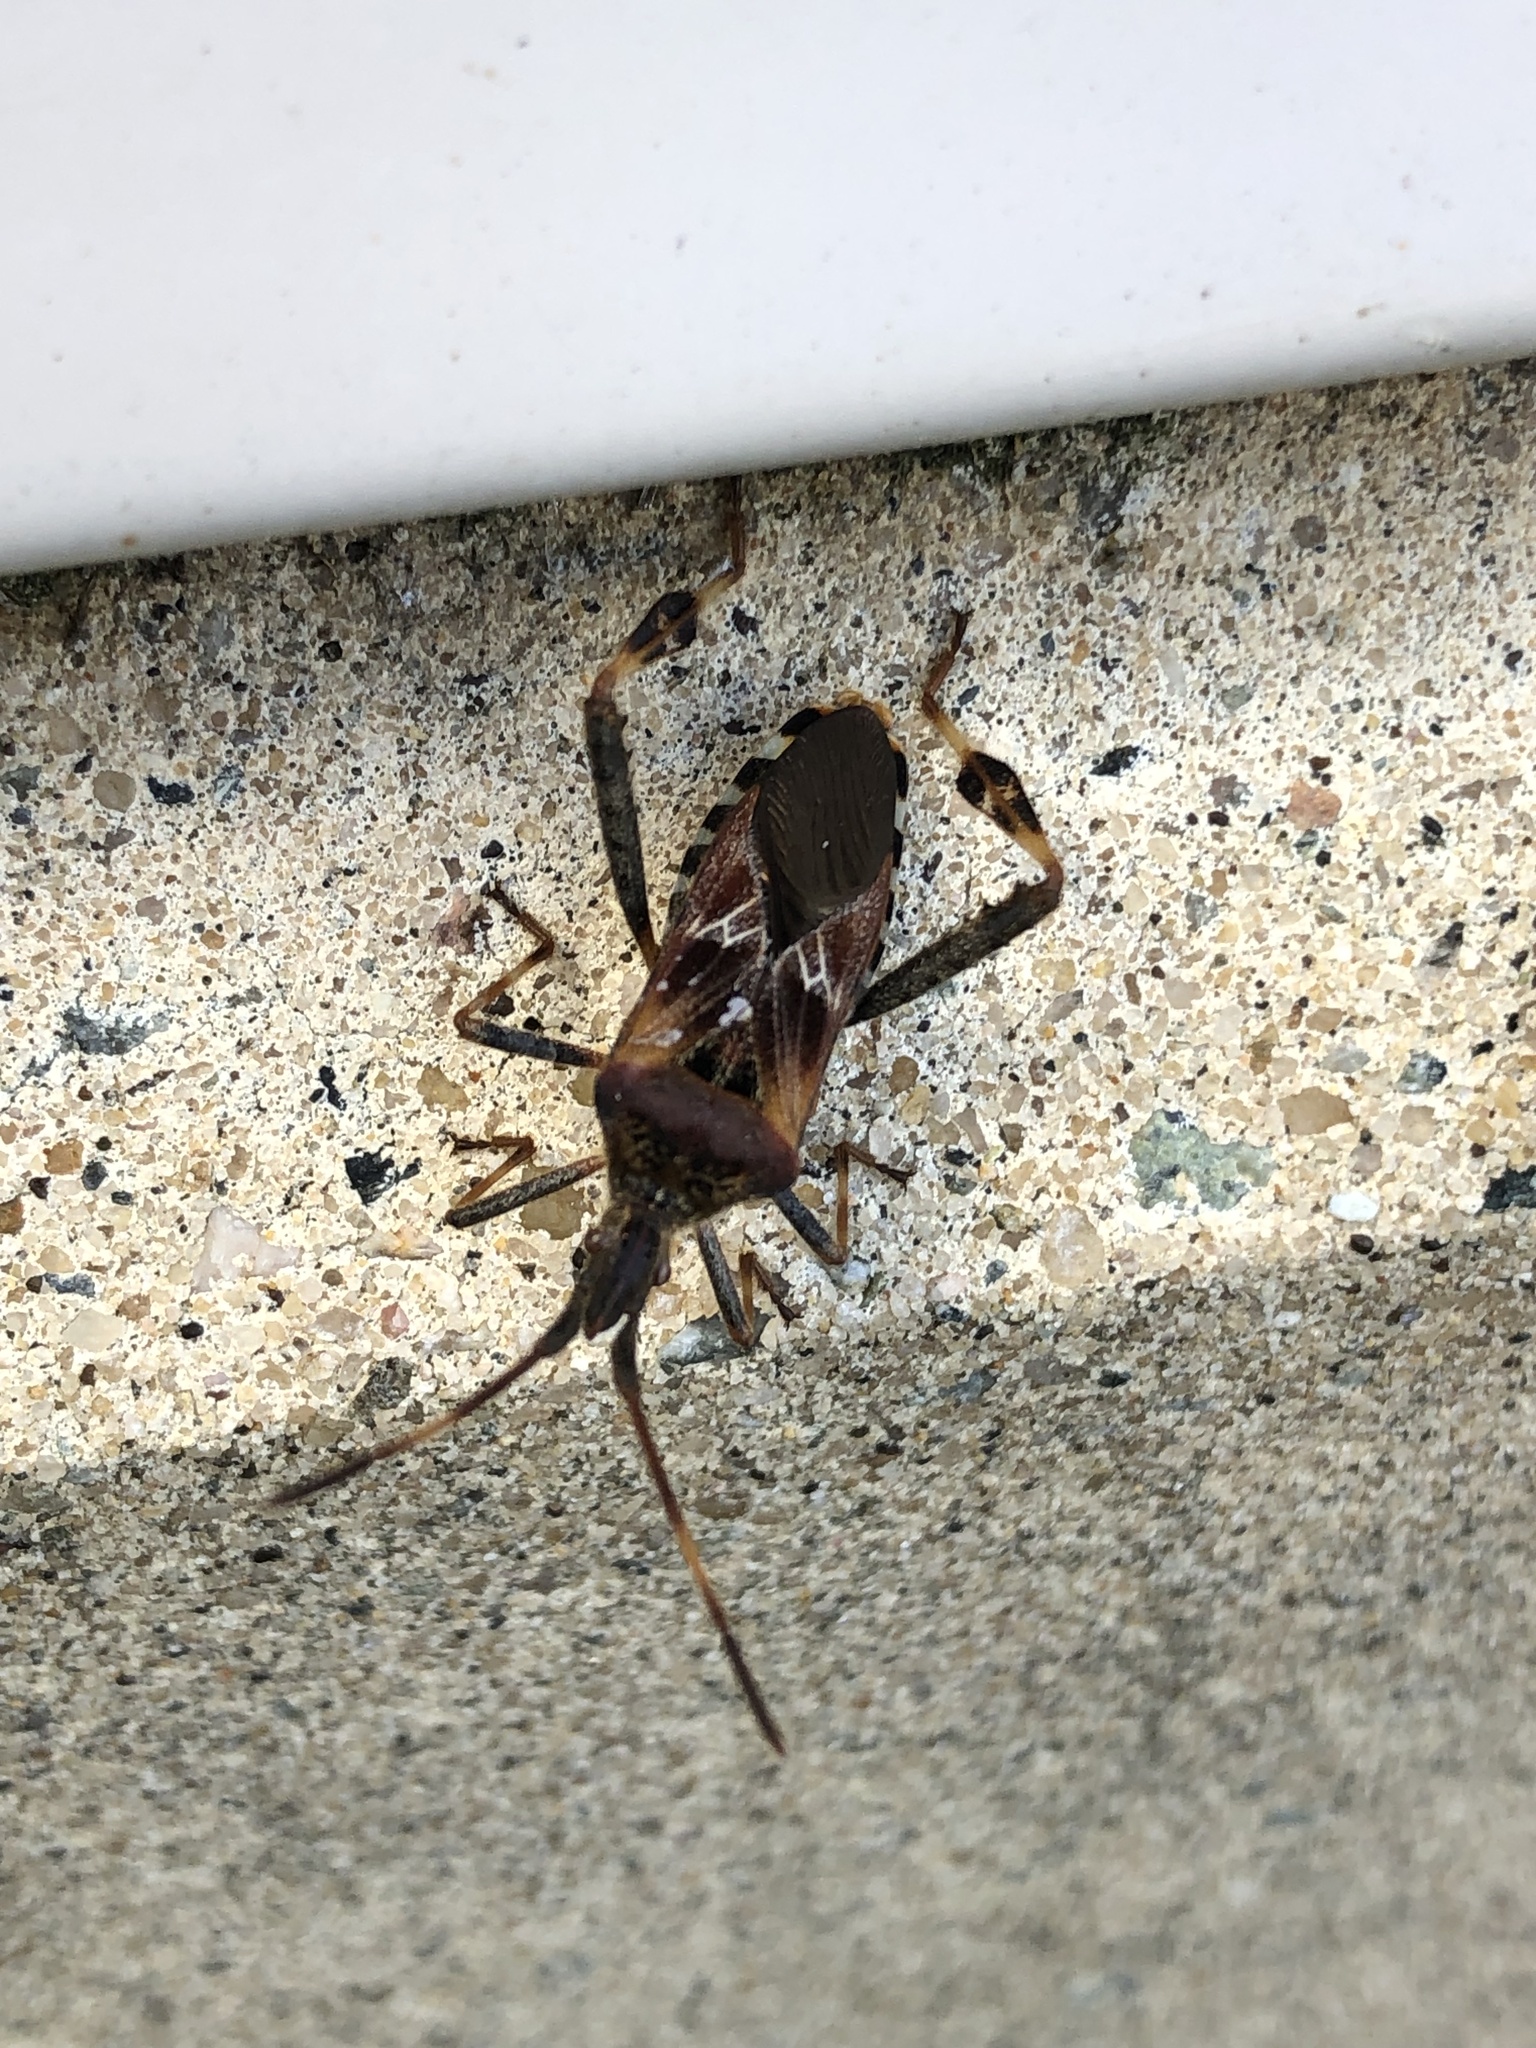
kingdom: Animalia
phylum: Arthropoda
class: Insecta
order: Hemiptera
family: Coreidae
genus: Leptoglossus
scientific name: Leptoglossus occidentalis
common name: Western conifer-seed bug
